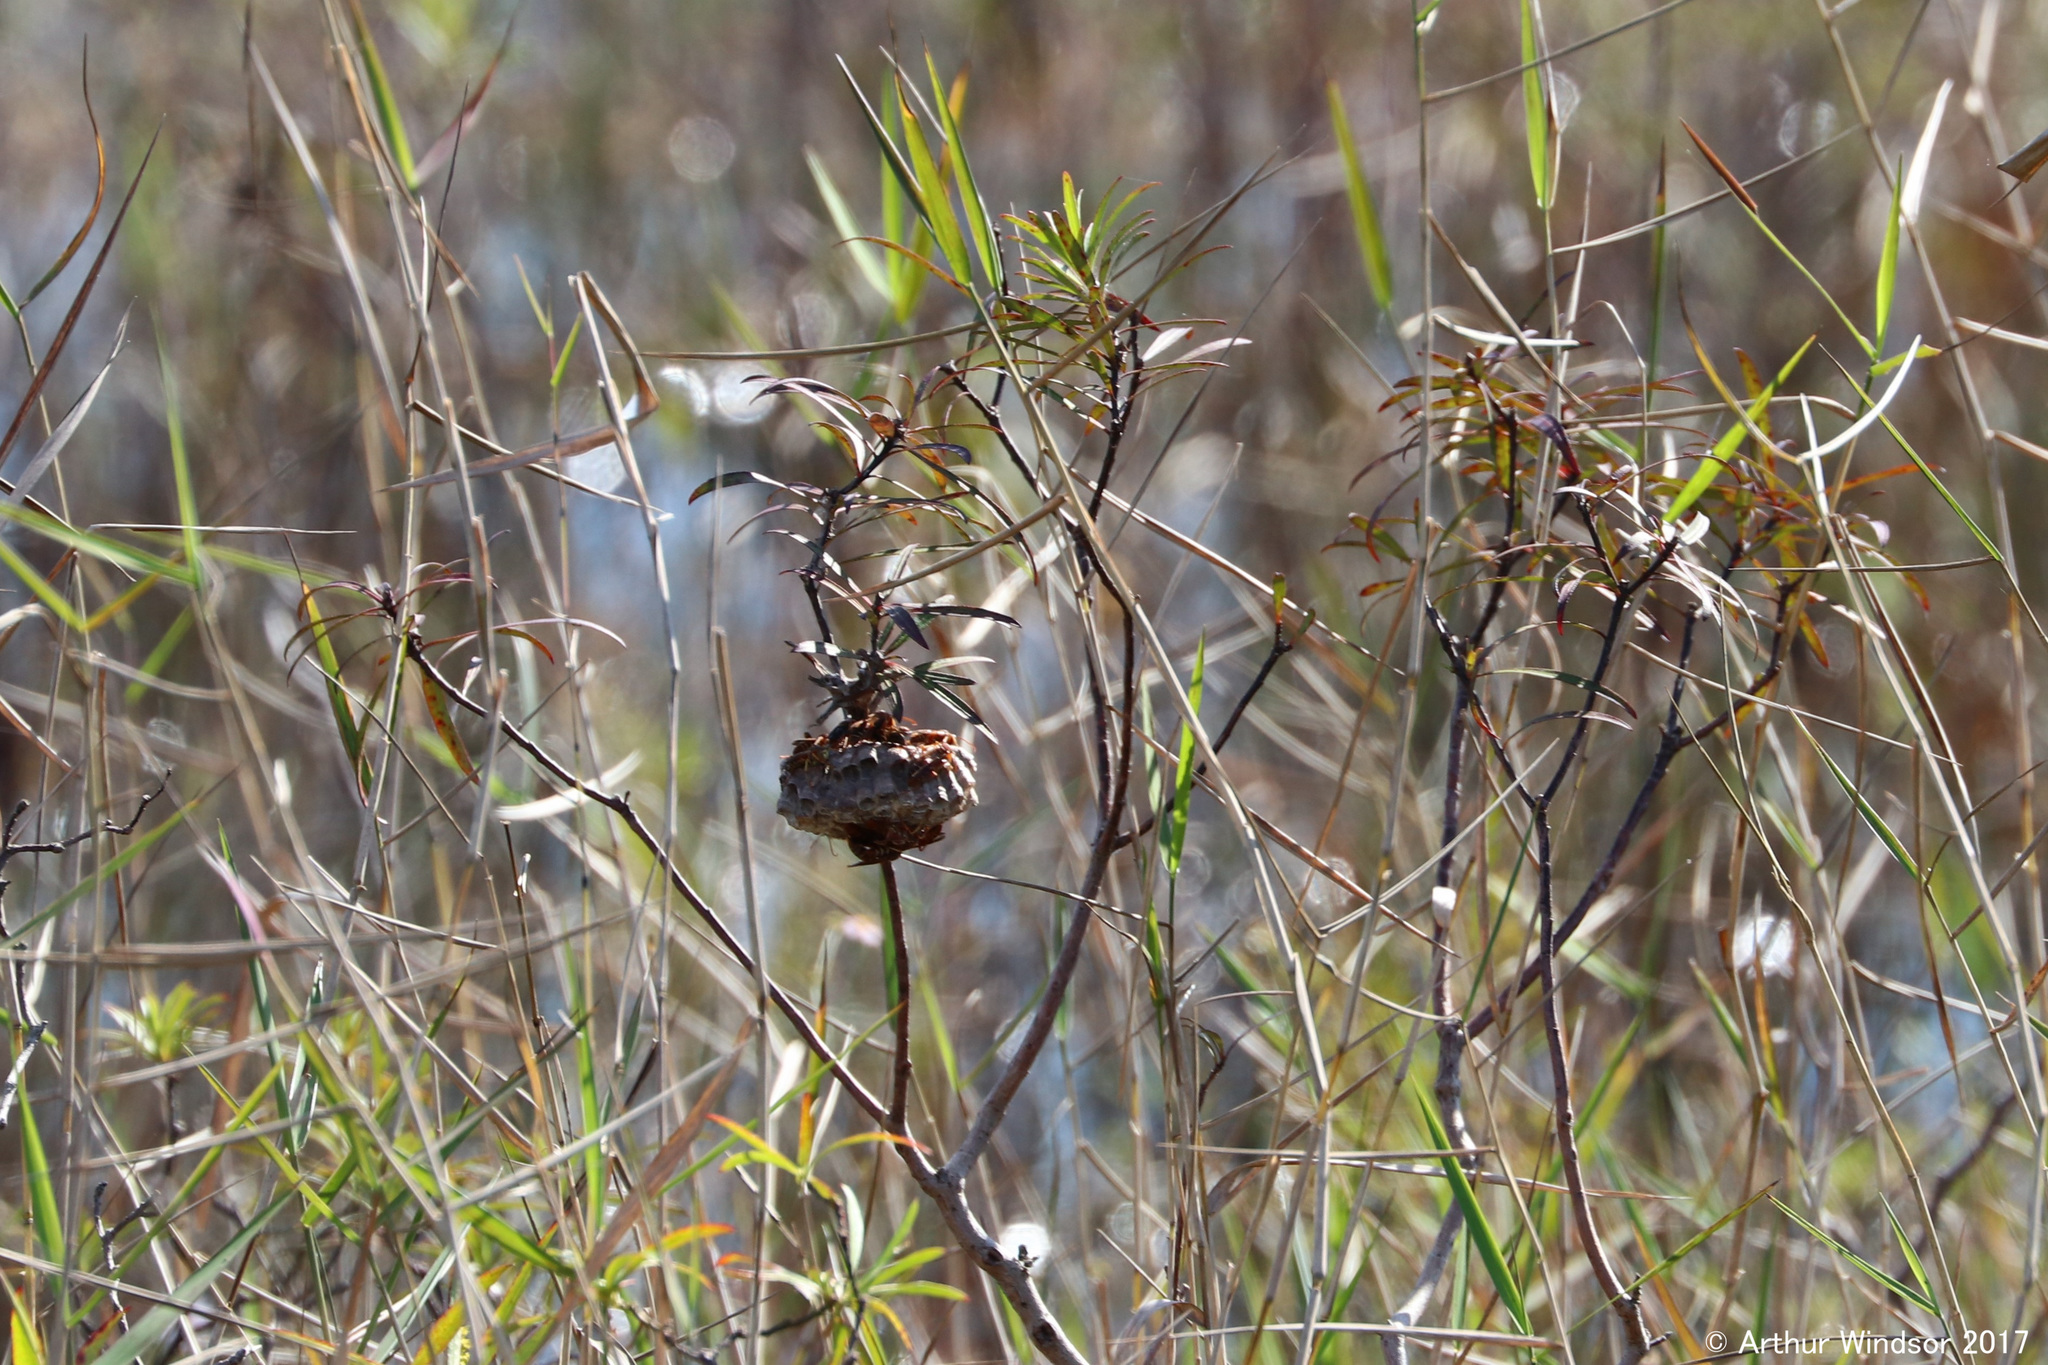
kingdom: Animalia
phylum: Arthropoda
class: Insecta
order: Hymenoptera
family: Eumenidae
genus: Polistes
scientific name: Polistes
